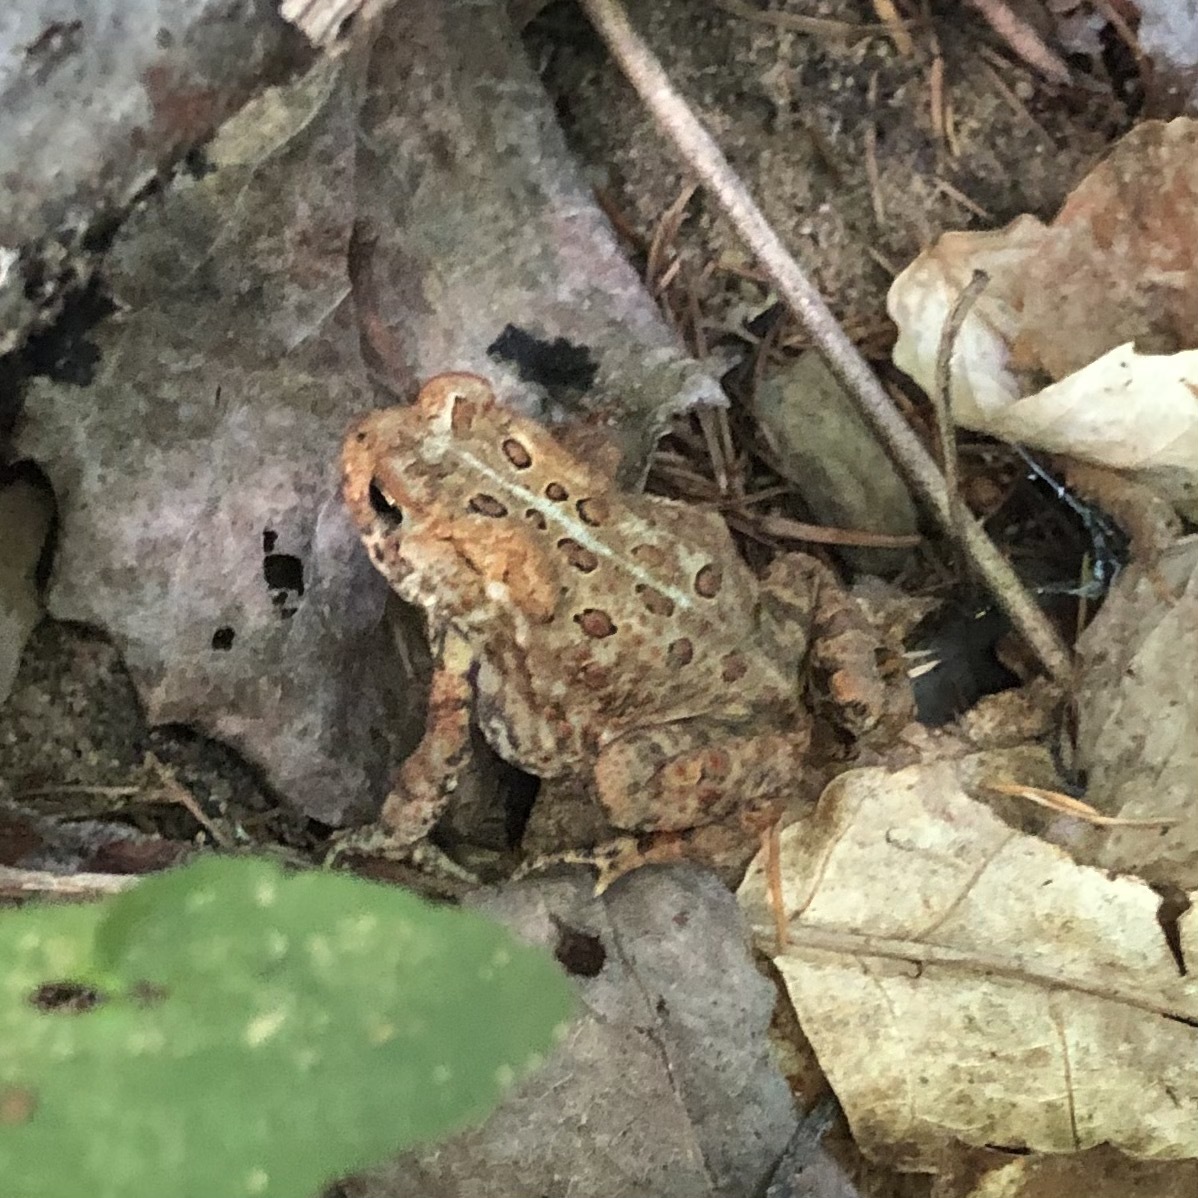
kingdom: Animalia
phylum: Chordata
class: Amphibia
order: Anura
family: Bufonidae
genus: Anaxyrus
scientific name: Anaxyrus americanus
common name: American toad
